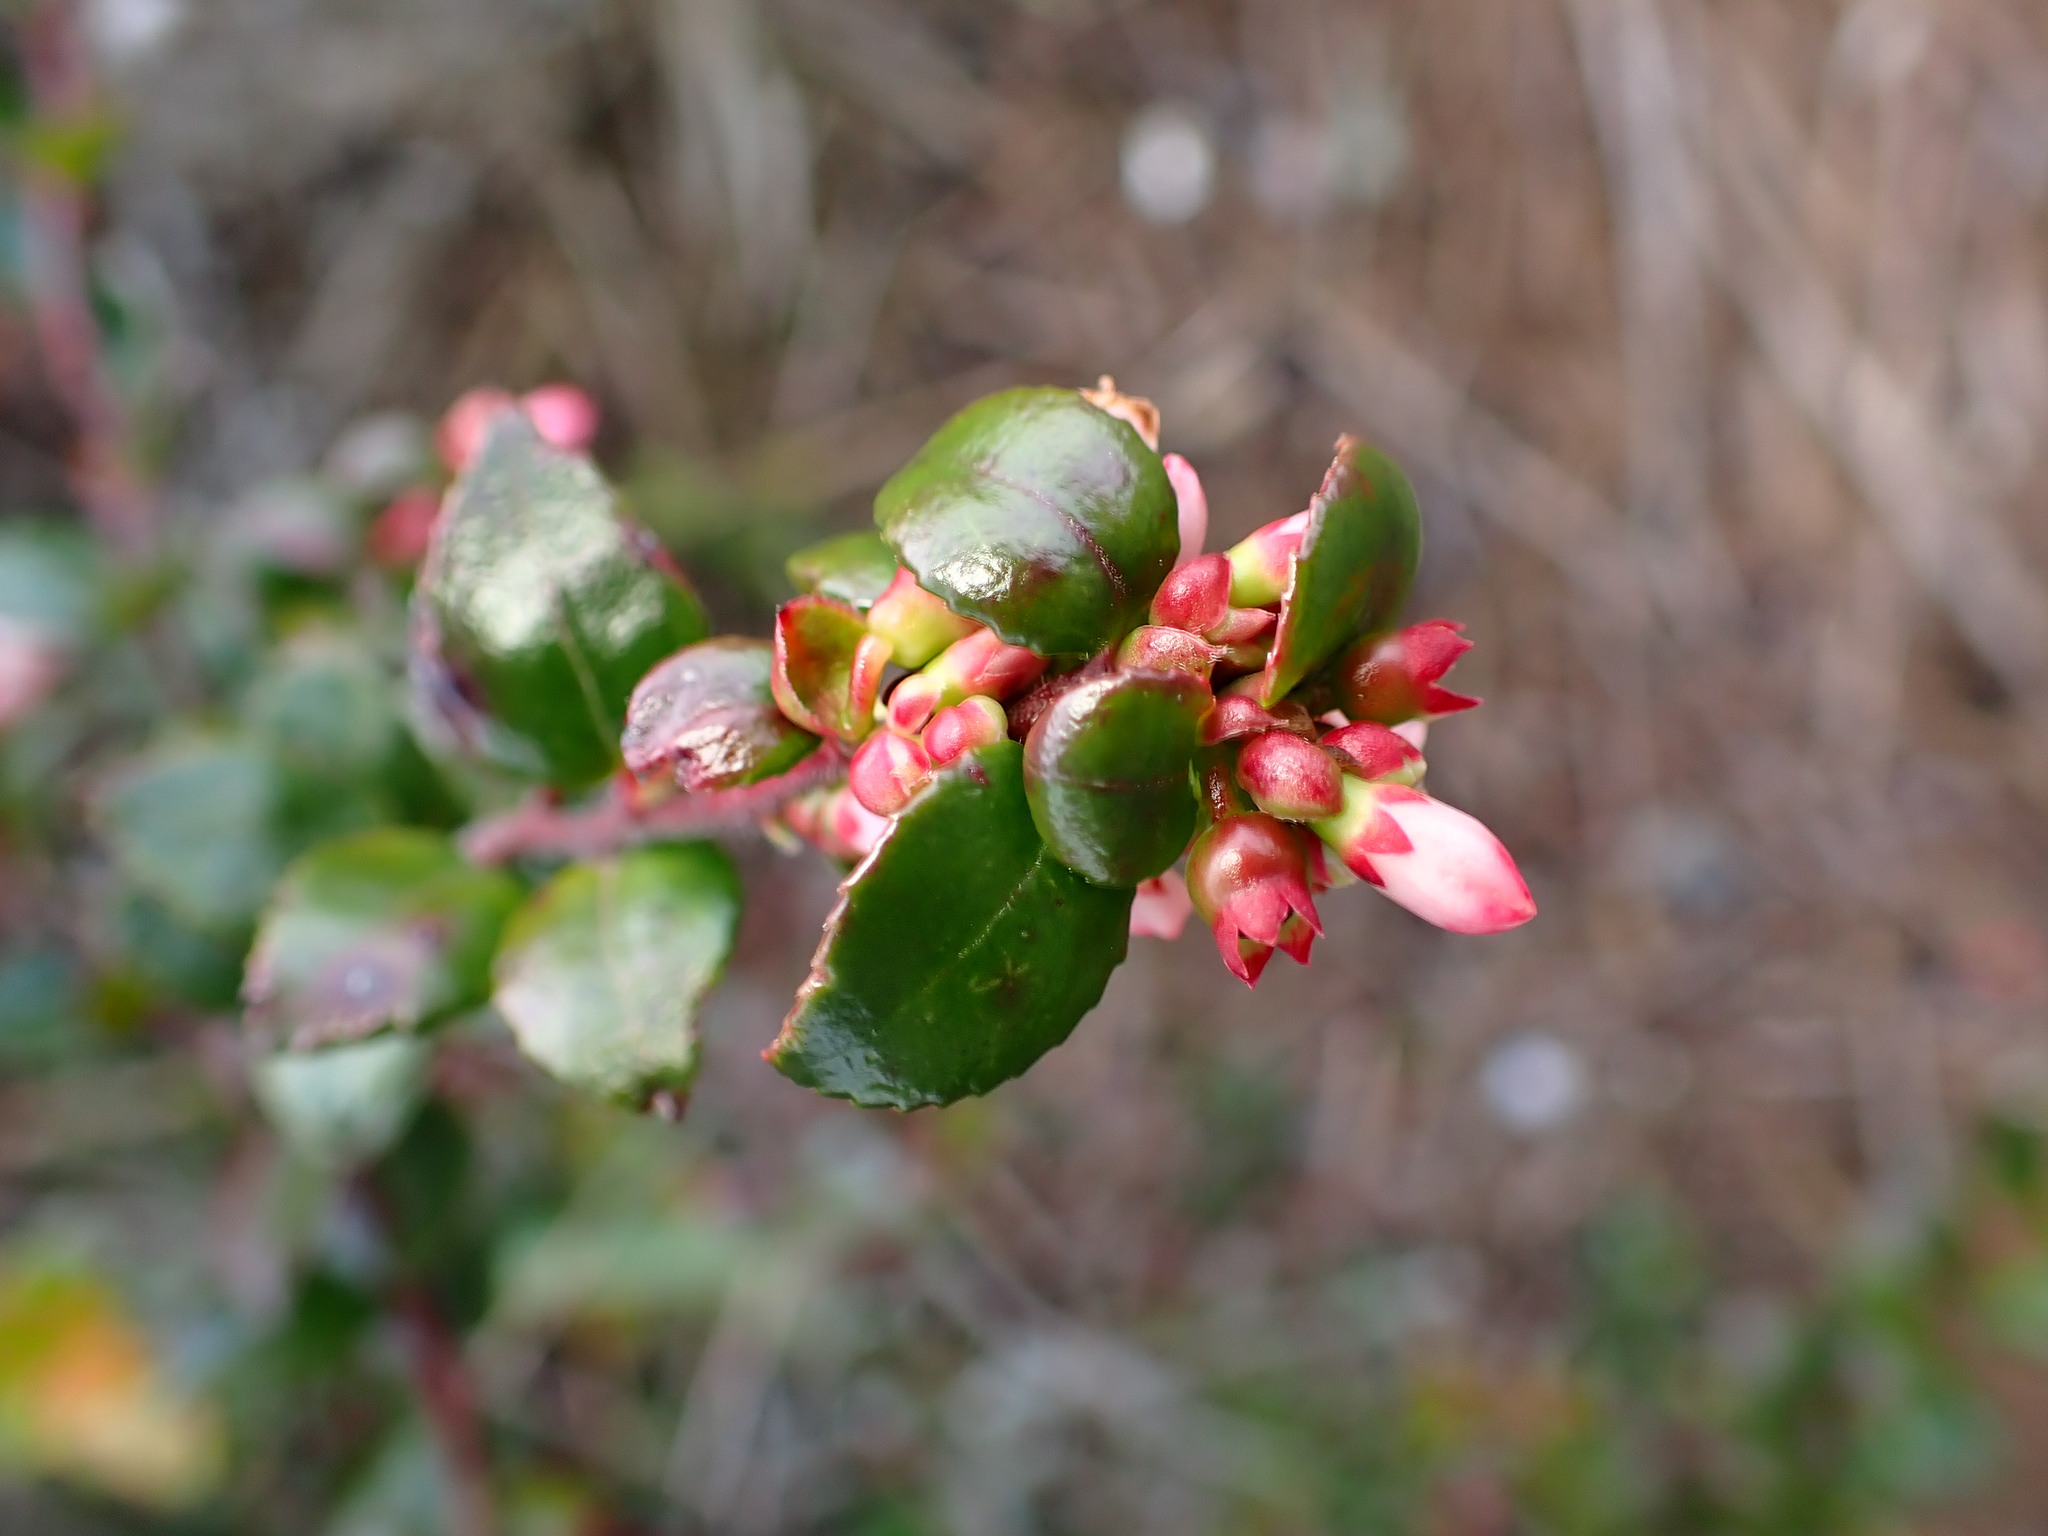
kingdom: Plantae
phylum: Tracheophyta
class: Magnoliopsida
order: Ericales
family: Ericaceae
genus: Vaccinium
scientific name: Vaccinium ovatum
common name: California-huckleberry
